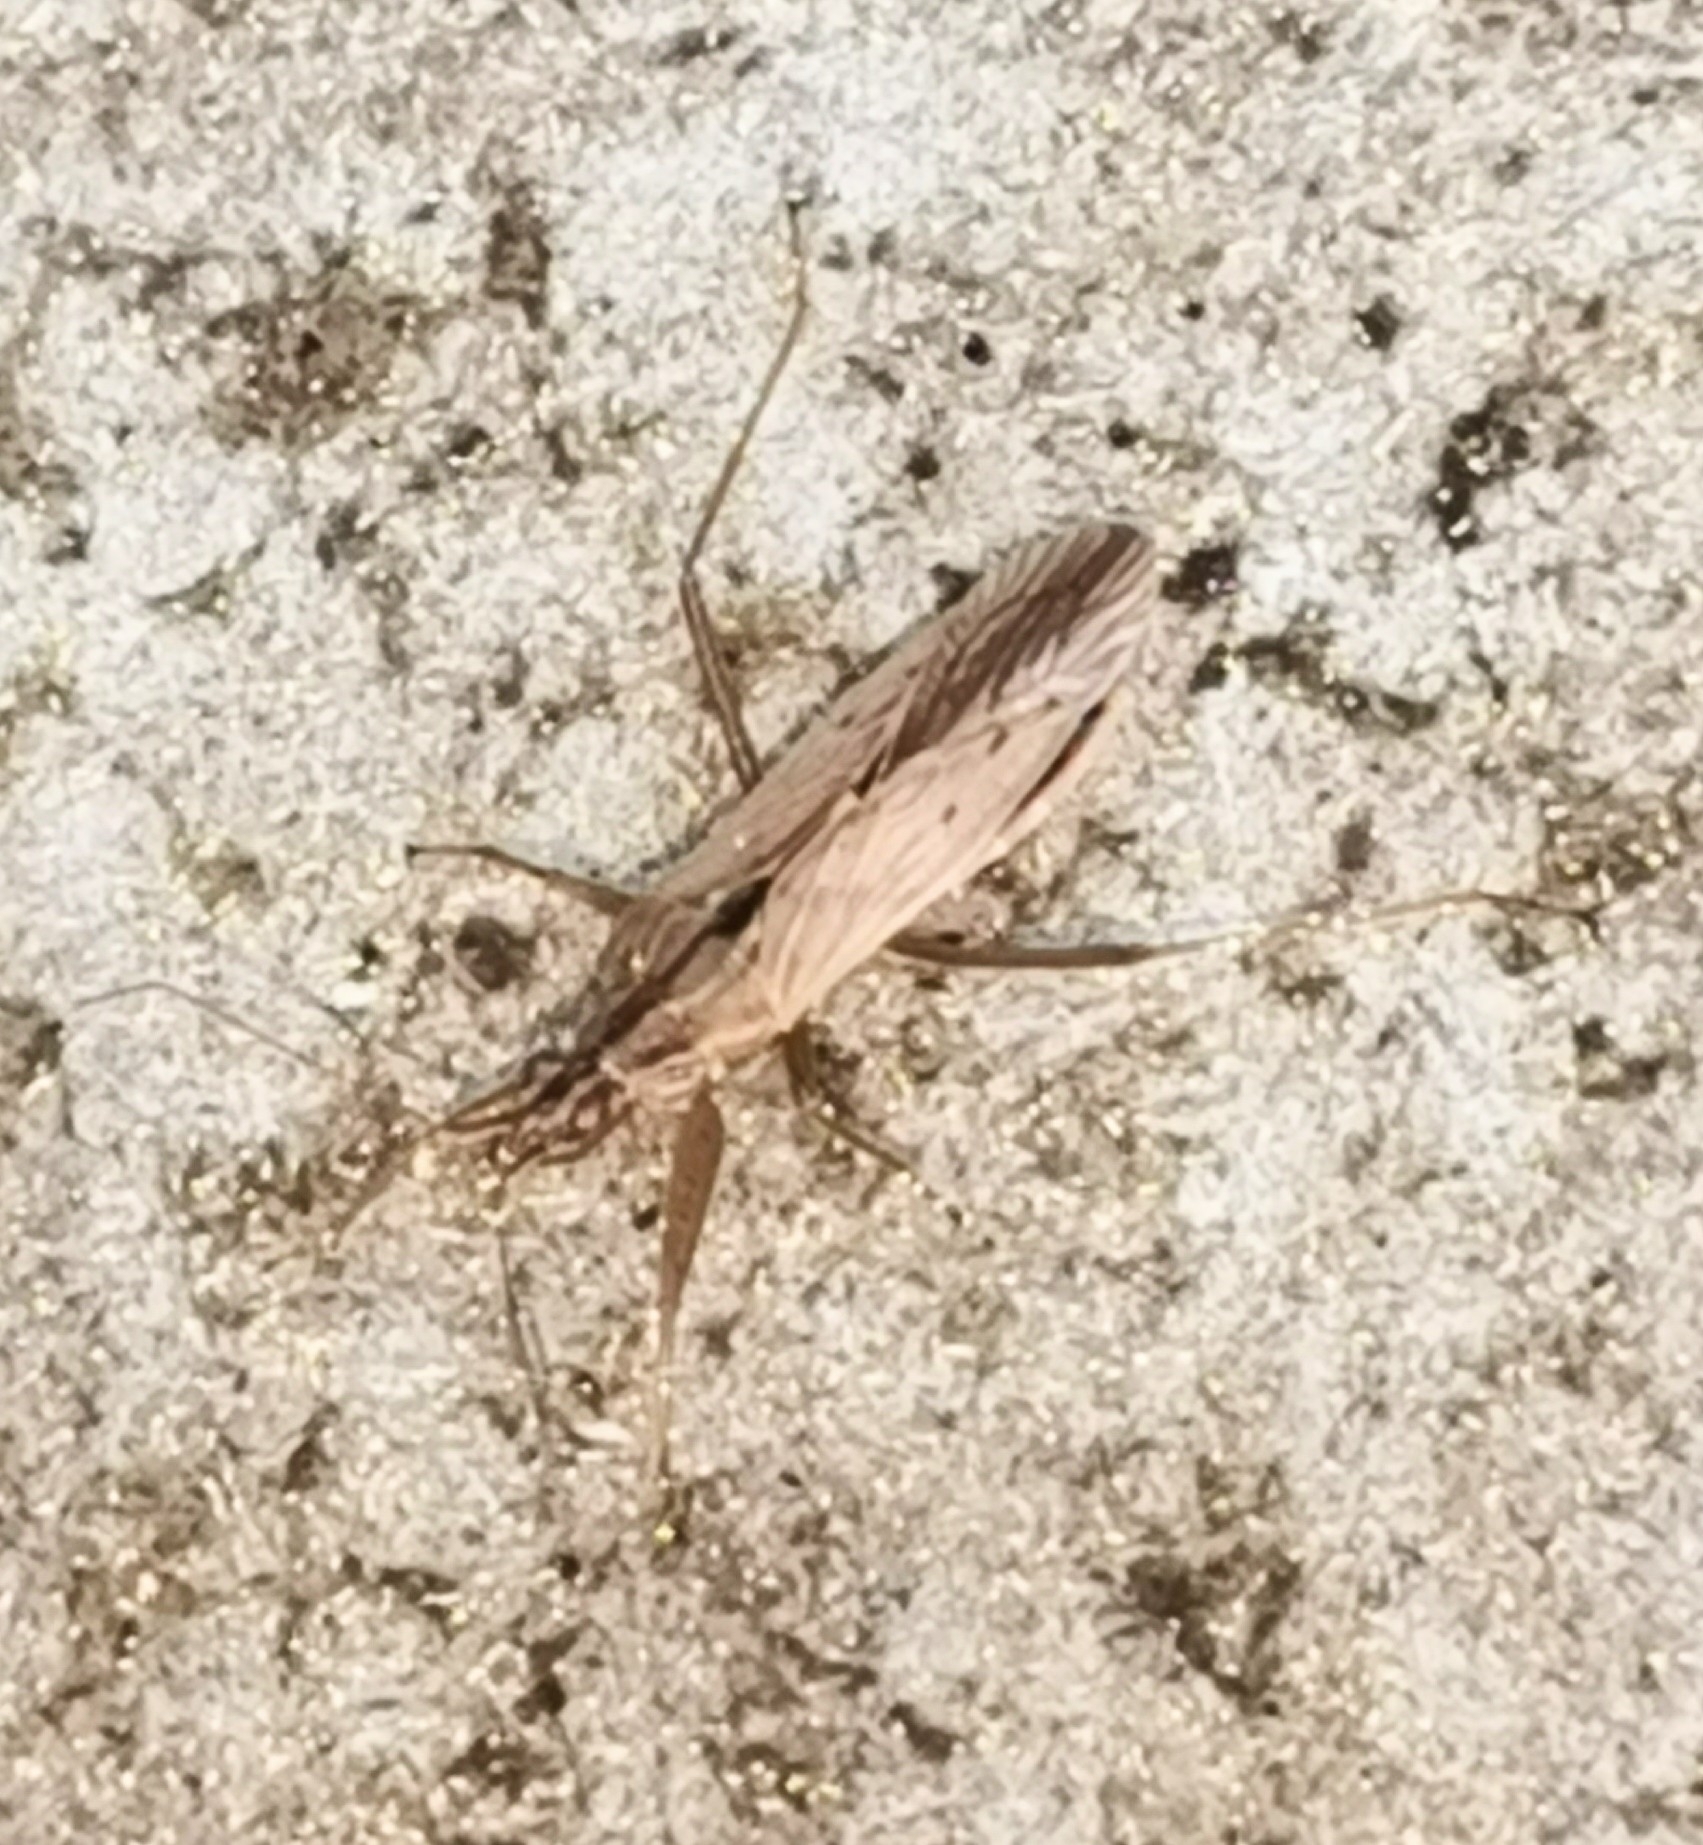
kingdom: Animalia
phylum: Arthropoda
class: Insecta
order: Hemiptera
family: Nabidae
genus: Nabis
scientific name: Nabis ferus
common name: Field damsel bug
